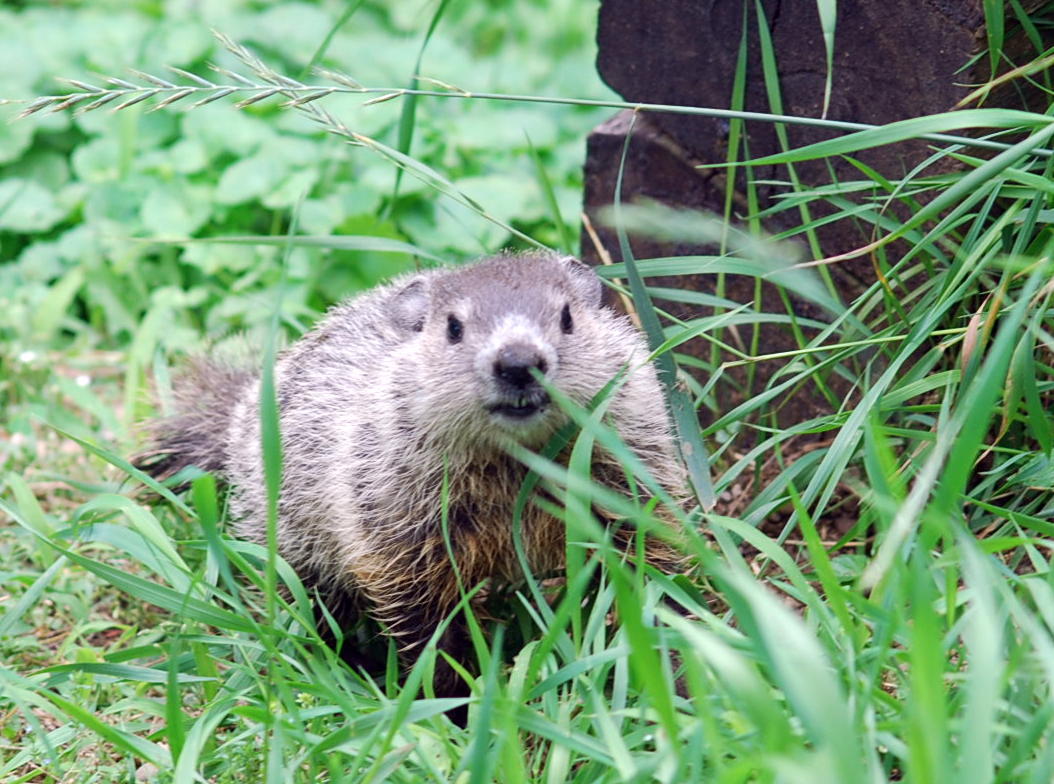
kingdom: Animalia
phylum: Chordata
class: Mammalia
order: Rodentia
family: Sciuridae
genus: Marmota
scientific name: Marmota monax
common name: Groundhog
